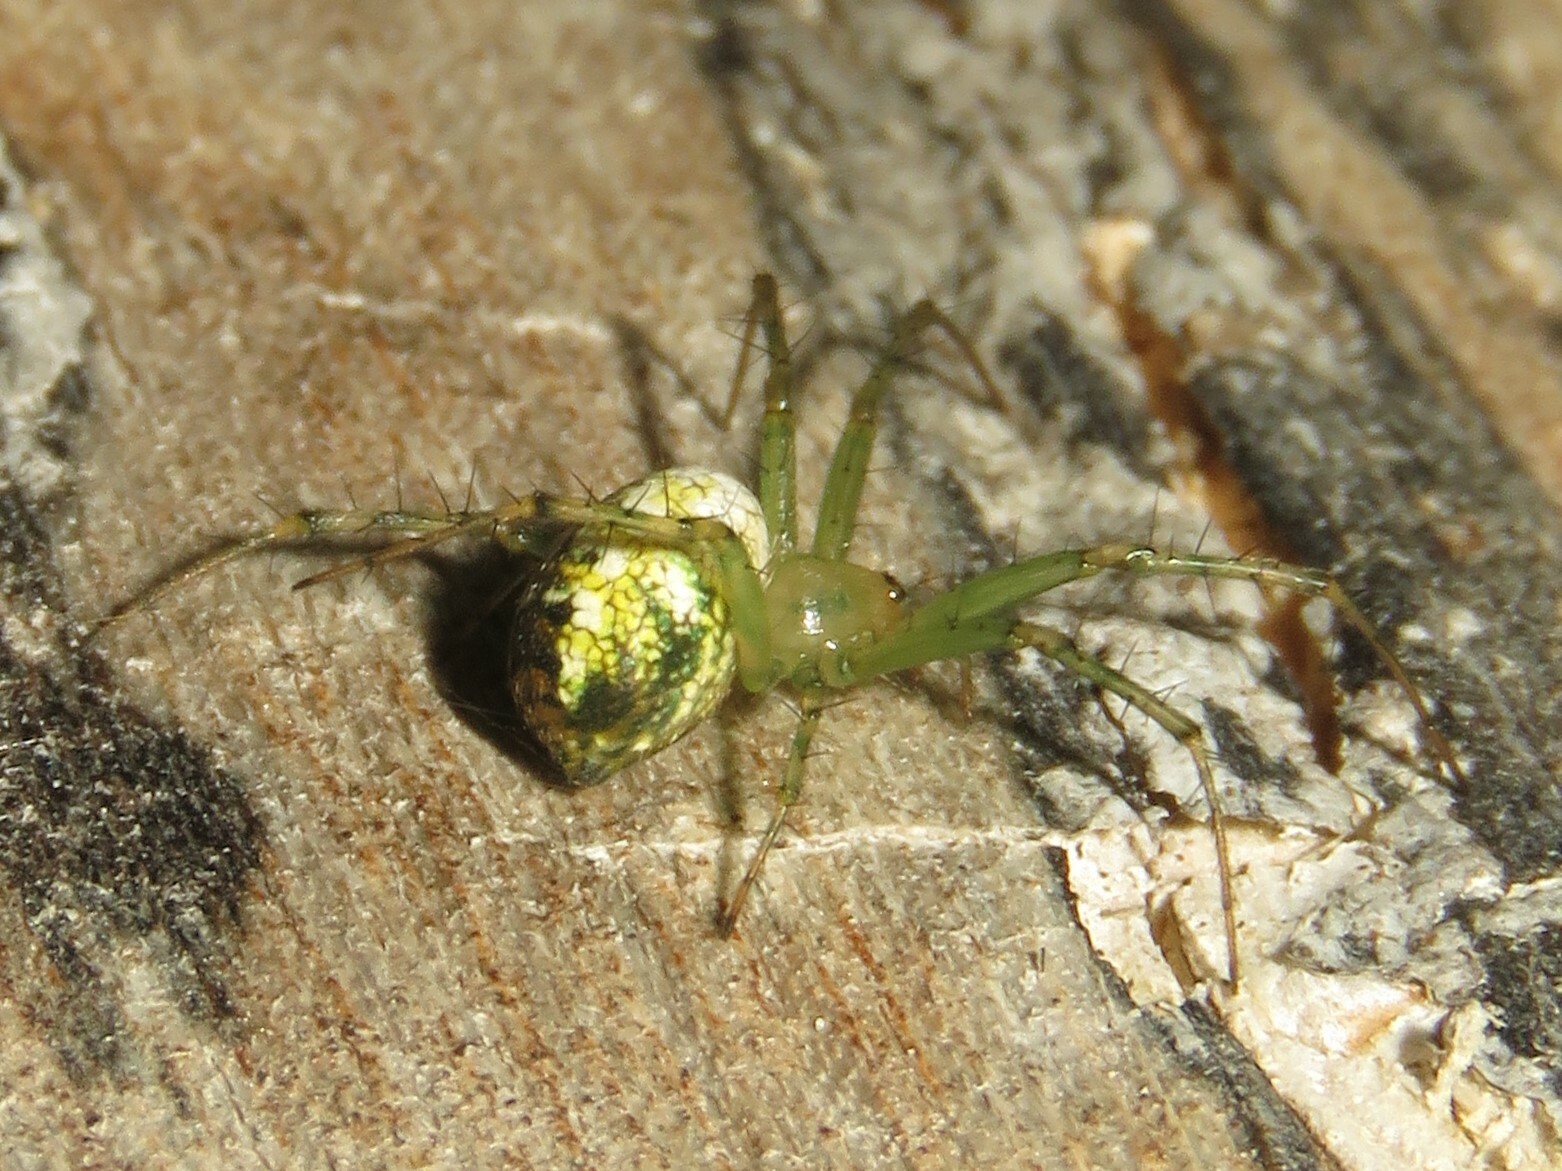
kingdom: Animalia
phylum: Arthropoda
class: Arachnida
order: Araneae
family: Araneidae
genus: Mangora
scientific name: Mangora maculata
